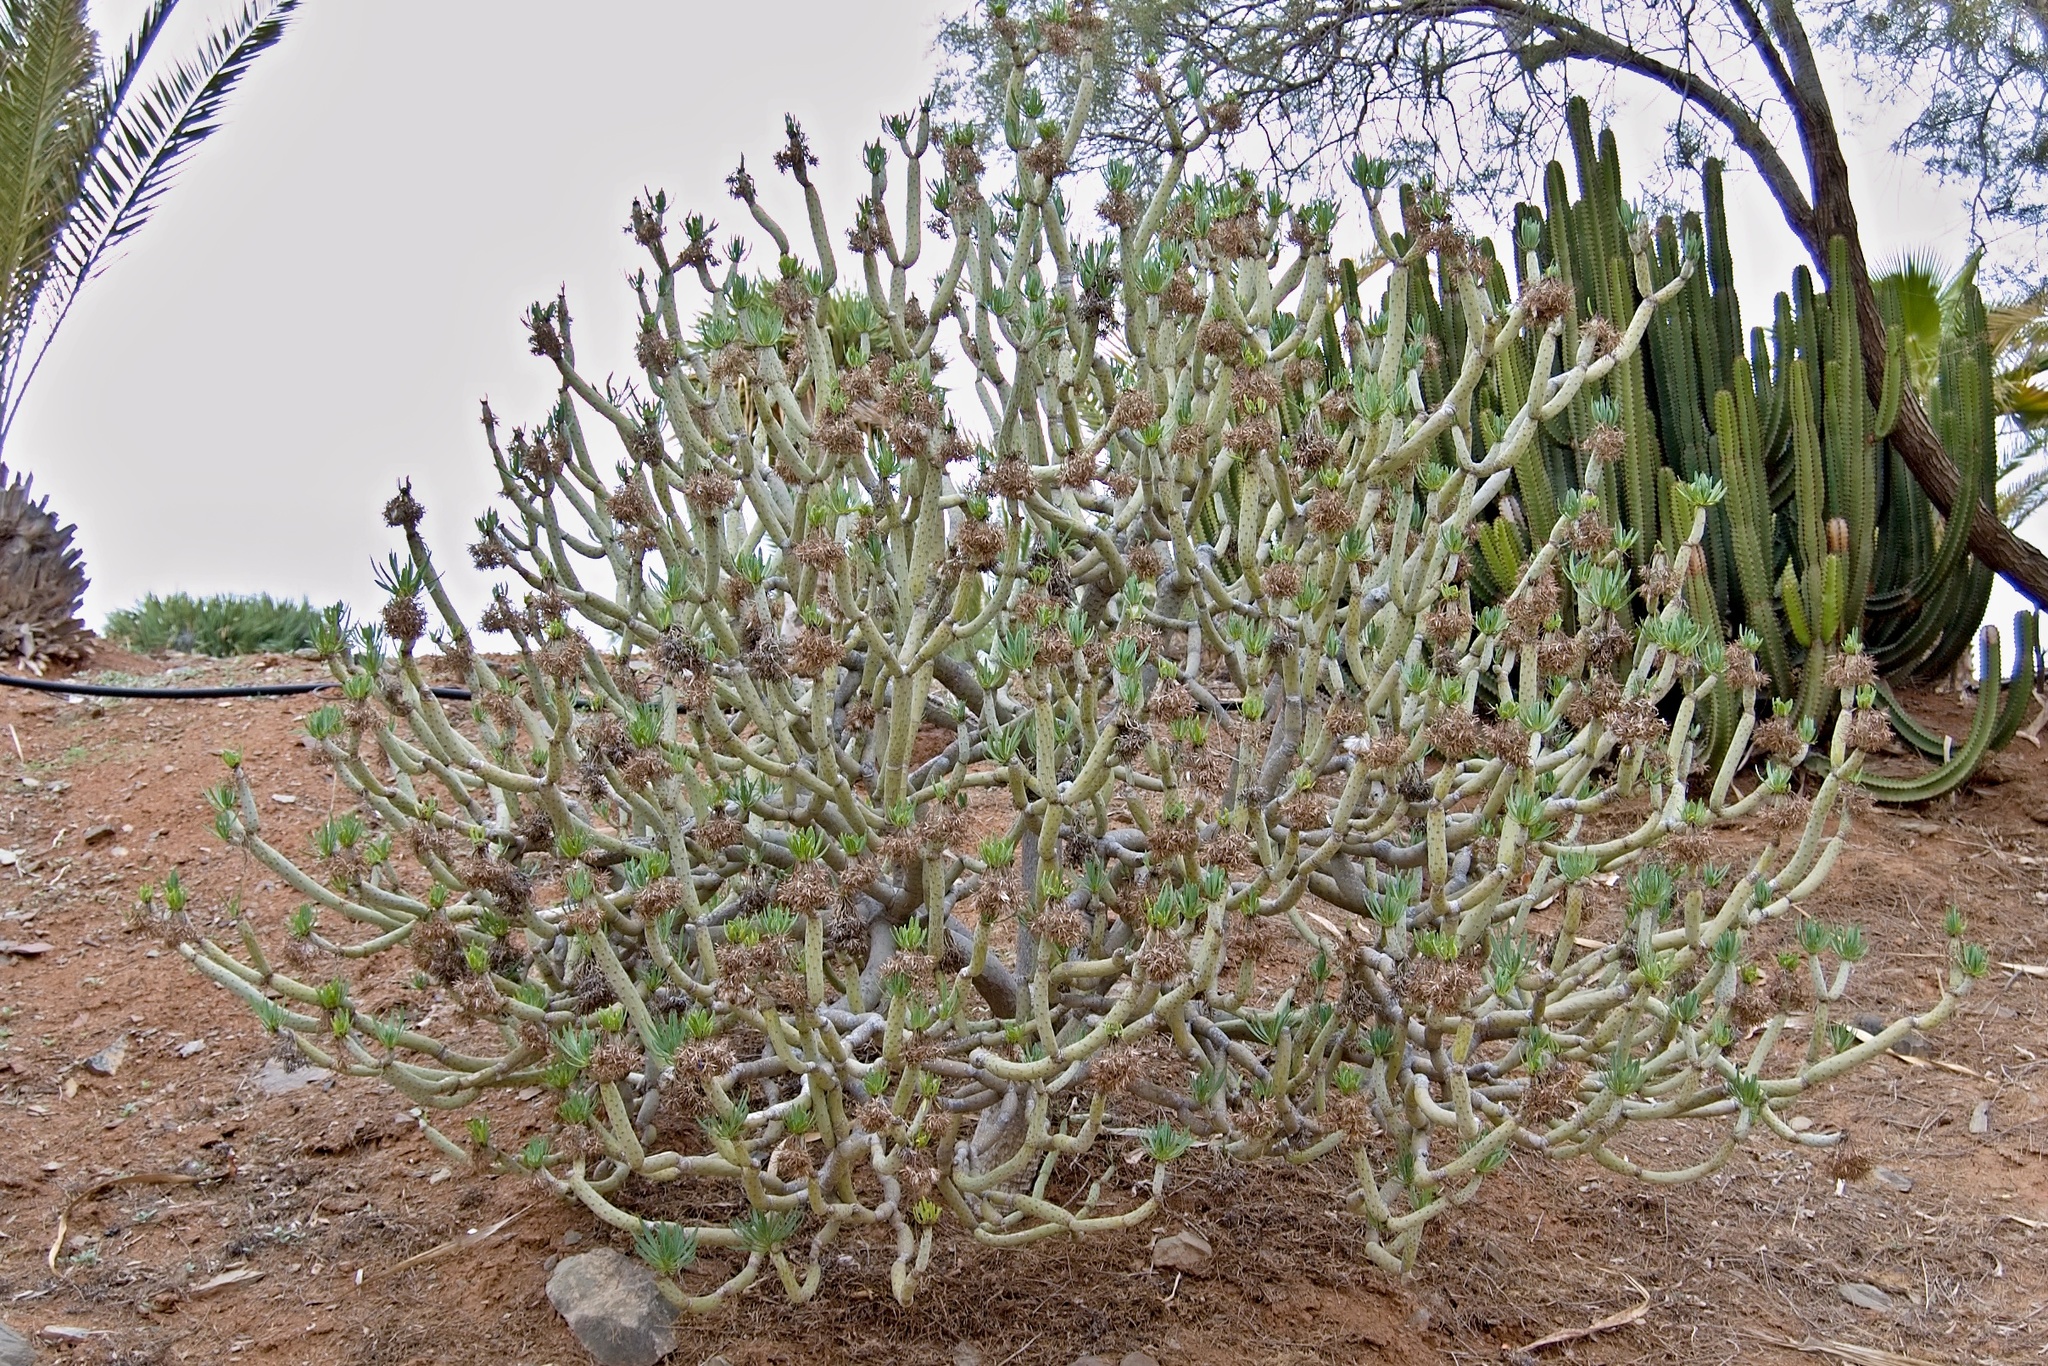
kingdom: Plantae
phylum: Tracheophyta
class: Magnoliopsida
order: Asterales
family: Asteraceae
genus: Kleinia
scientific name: Kleinia neriifolia
